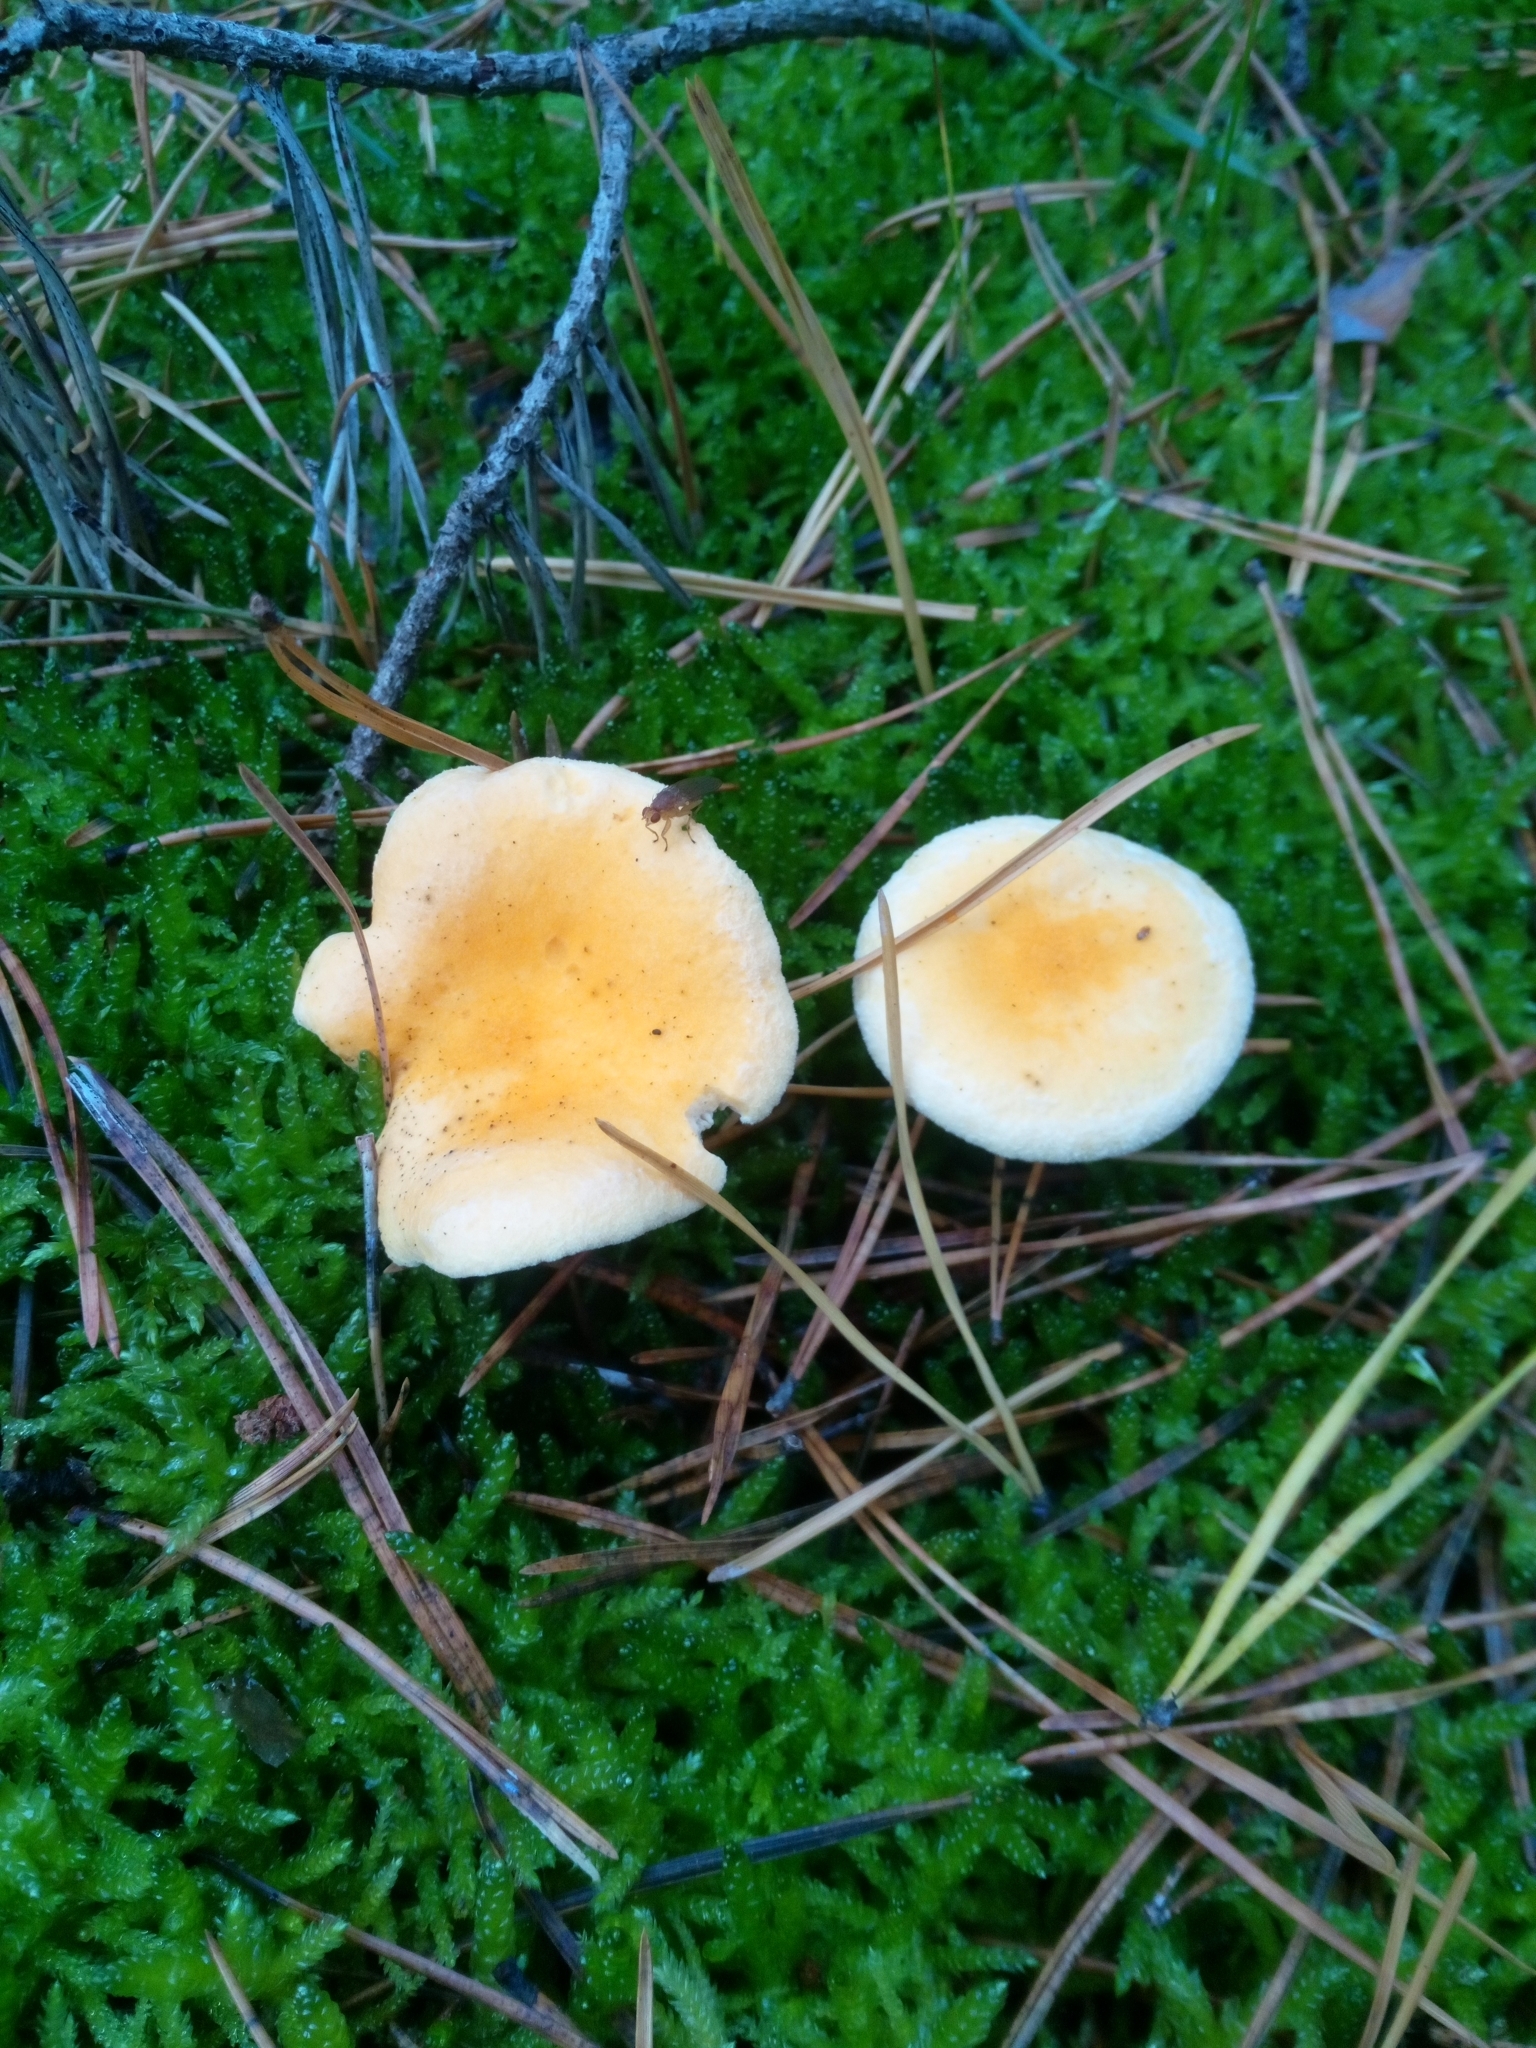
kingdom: Fungi
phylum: Basidiomycota
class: Agaricomycetes
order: Boletales
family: Hygrophoropsidaceae
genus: Hygrophoropsis
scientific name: Hygrophoropsis aurantiaca
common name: False chanterelle
